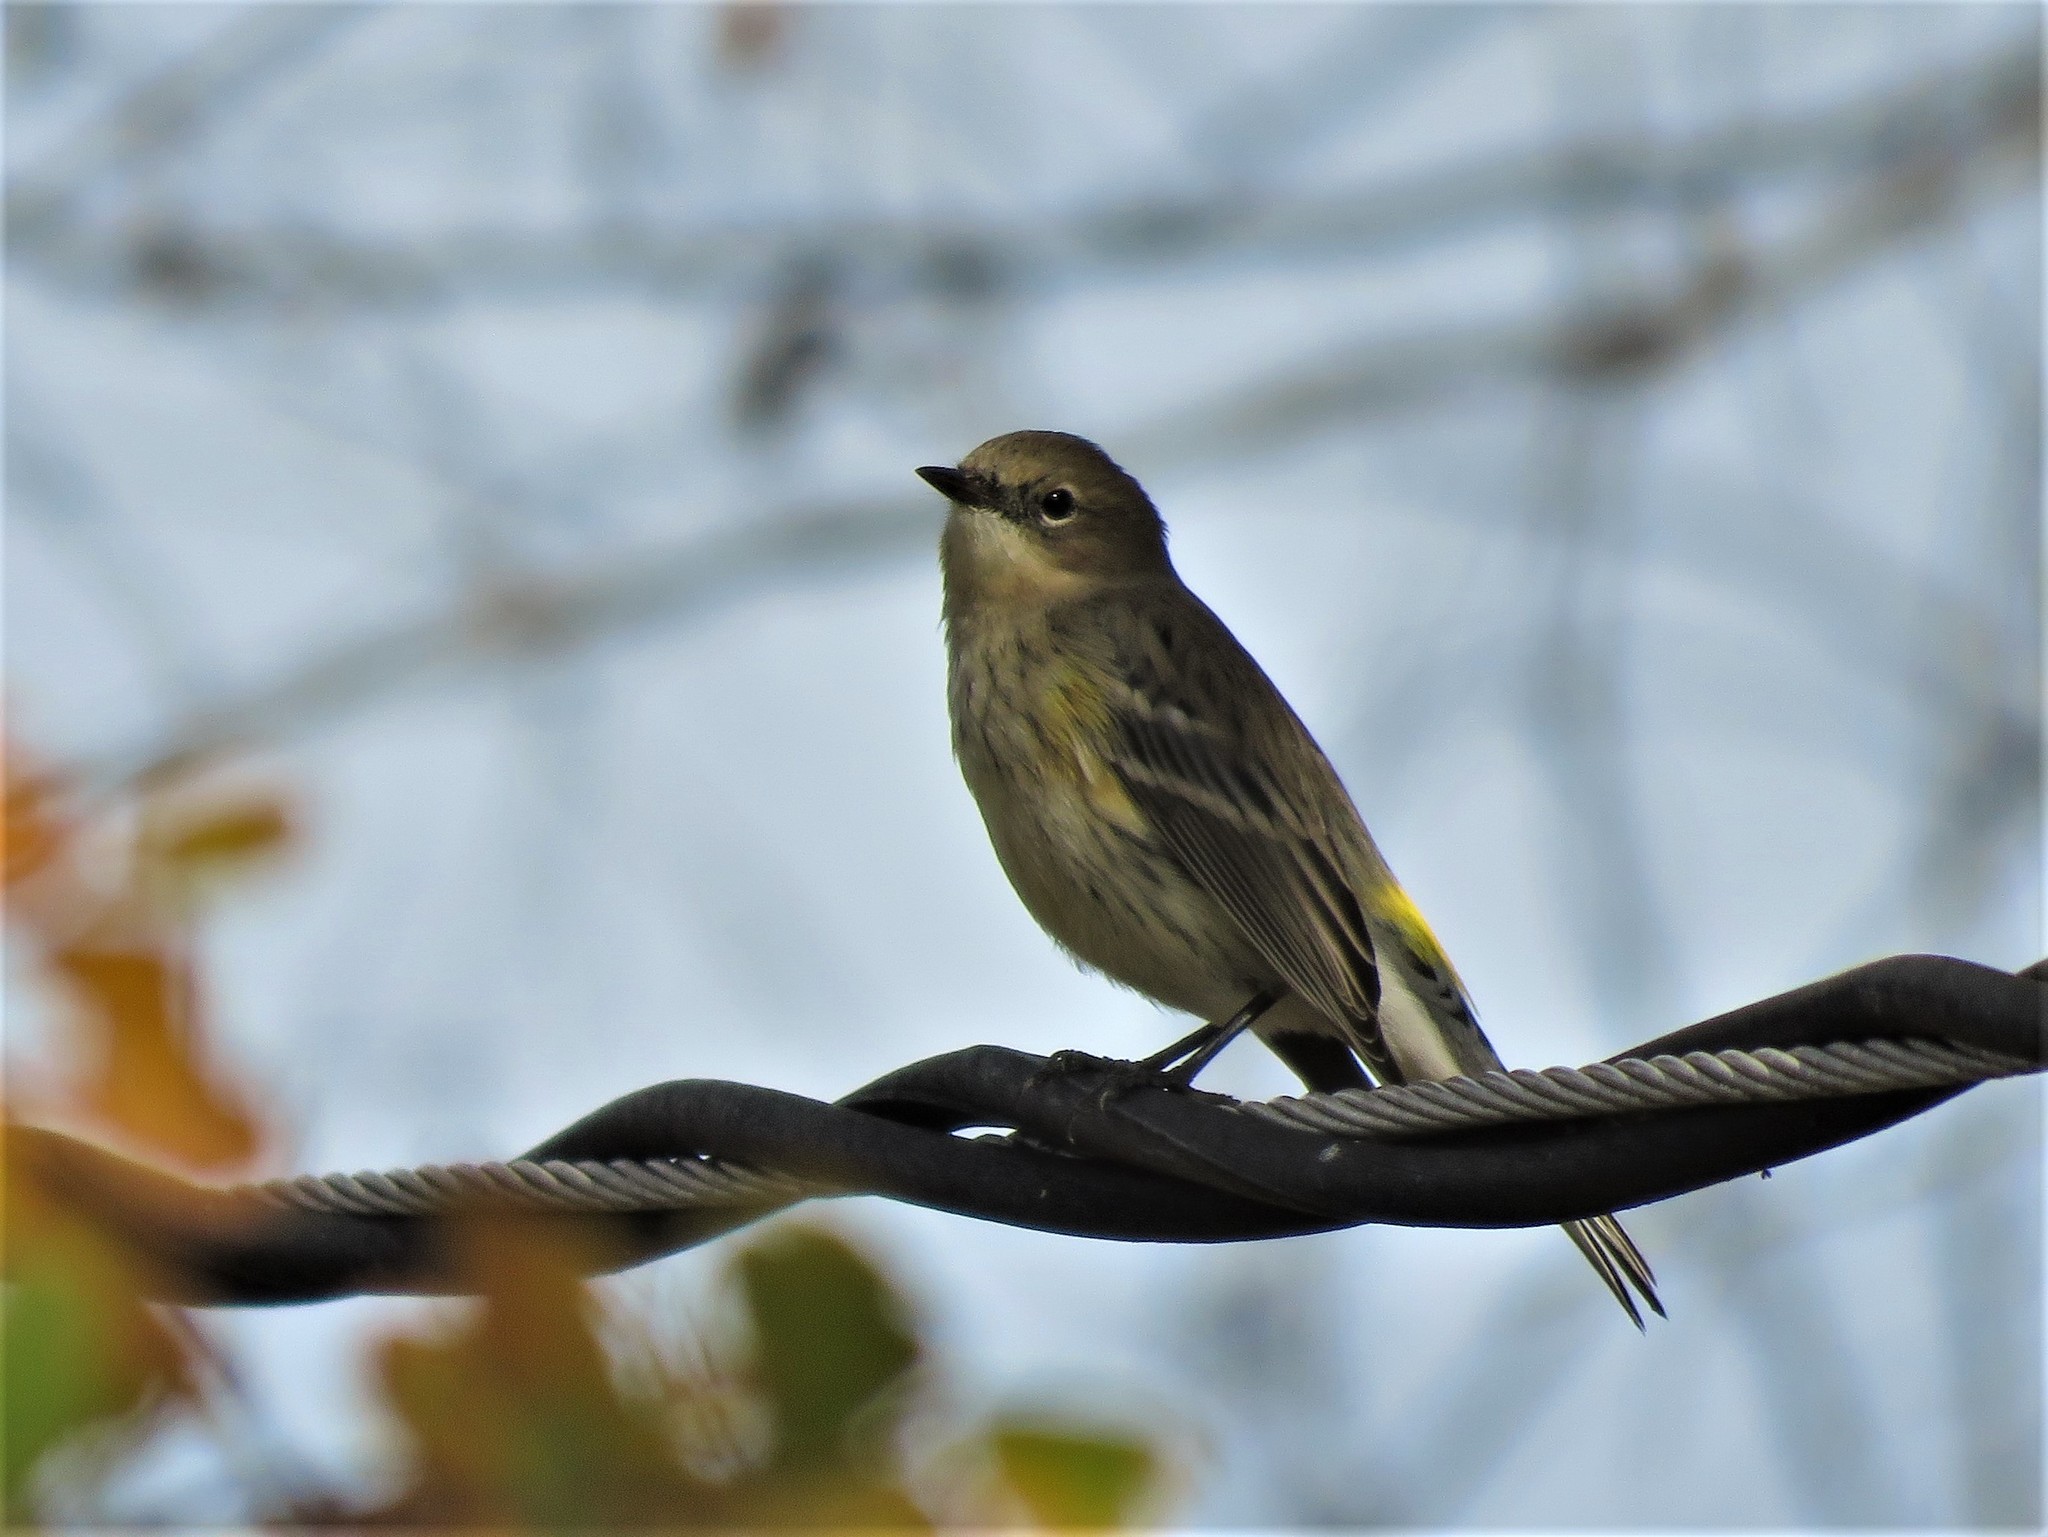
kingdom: Animalia
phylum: Chordata
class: Aves
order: Passeriformes
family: Parulidae
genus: Setophaga
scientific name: Setophaga coronata
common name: Myrtle warbler
